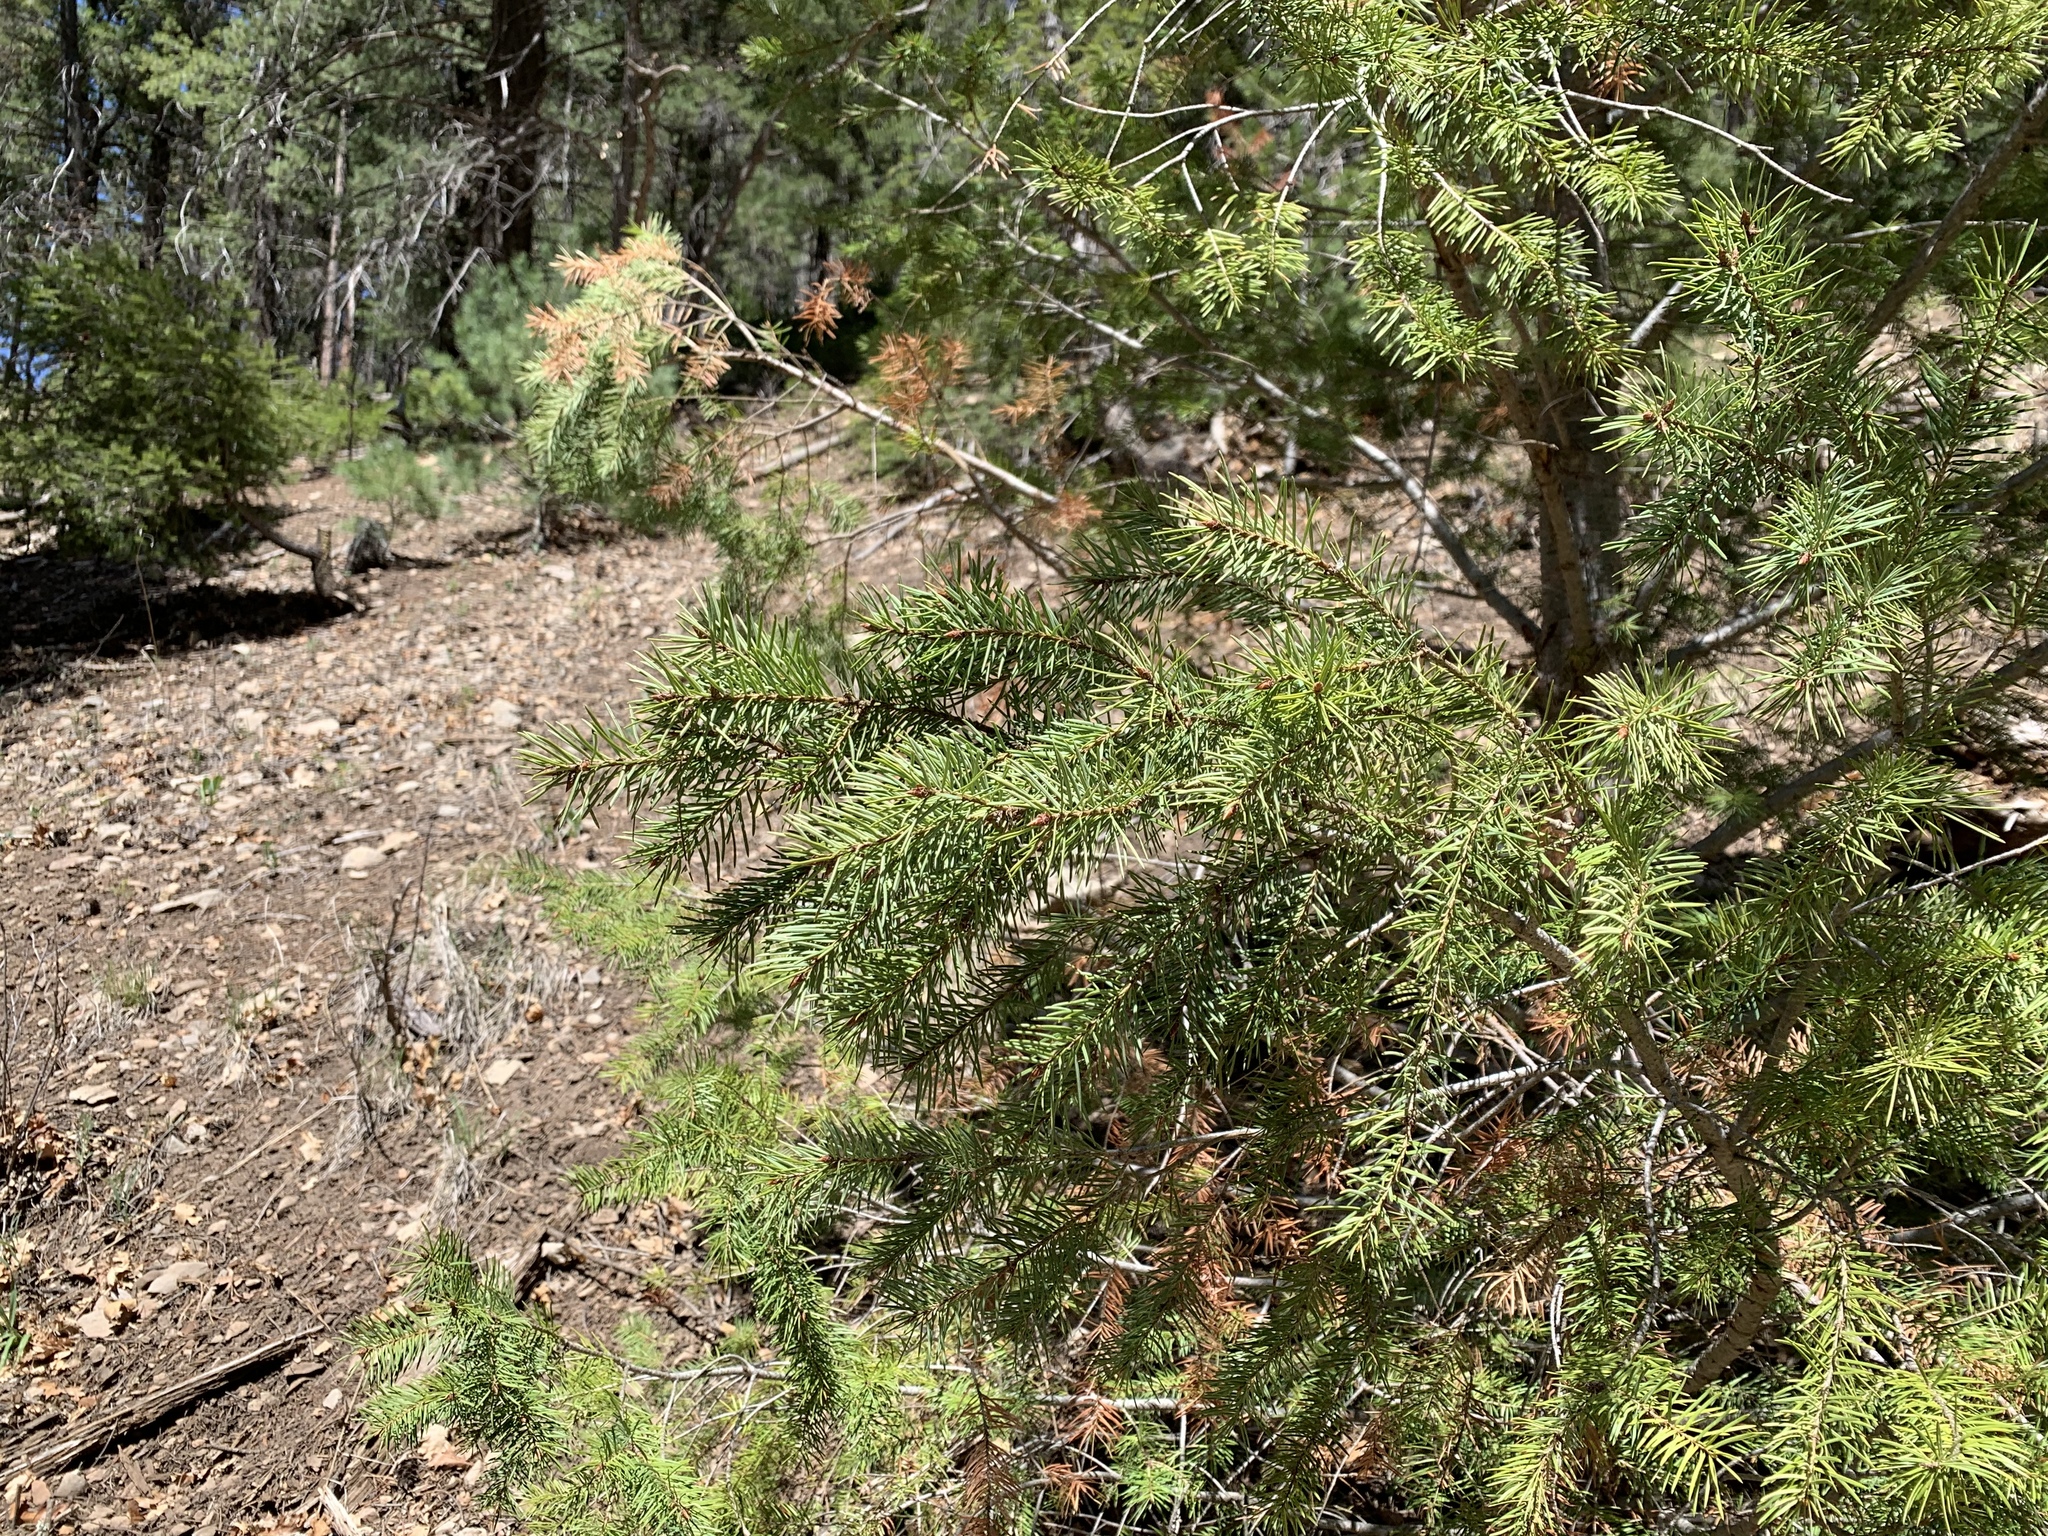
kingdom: Plantae
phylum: Tracheophyta
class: Pinopsida
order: Pinales
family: Pinaceae
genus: Pseudotsuga
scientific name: Pseudotsuga menziesii
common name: Douglas fir
